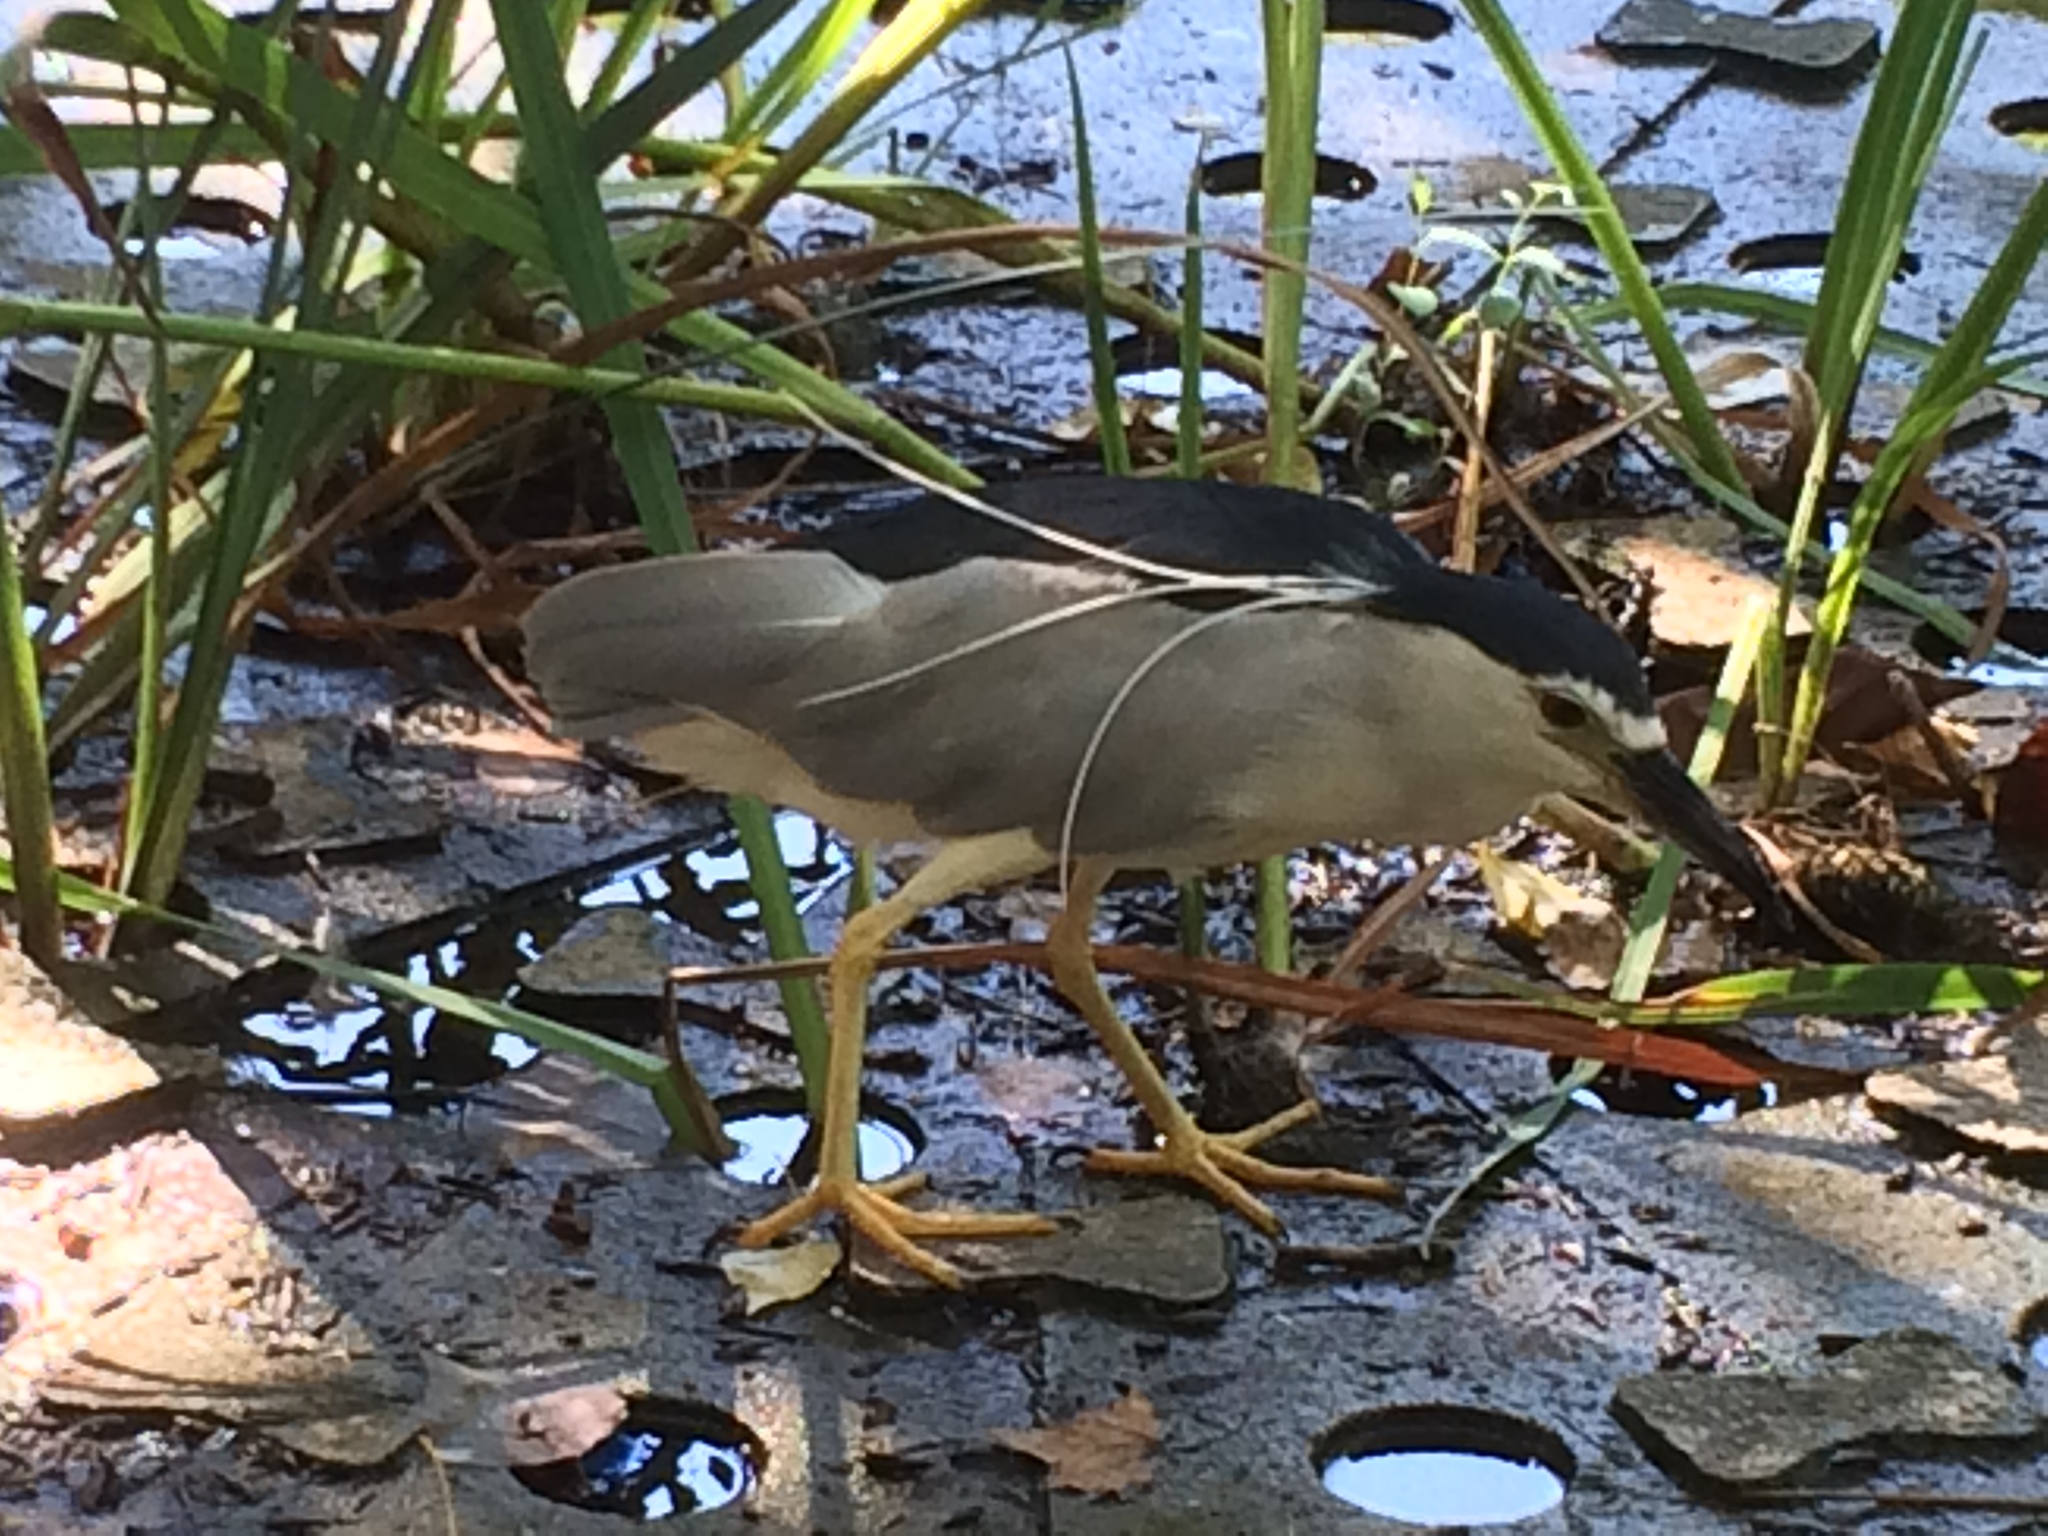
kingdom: Animalia
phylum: Chordata
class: Aves
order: Pelecaniformes
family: Ardeidae
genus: Nycticorax
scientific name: Nycticorax nycticorax
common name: Black-crowned night heron
